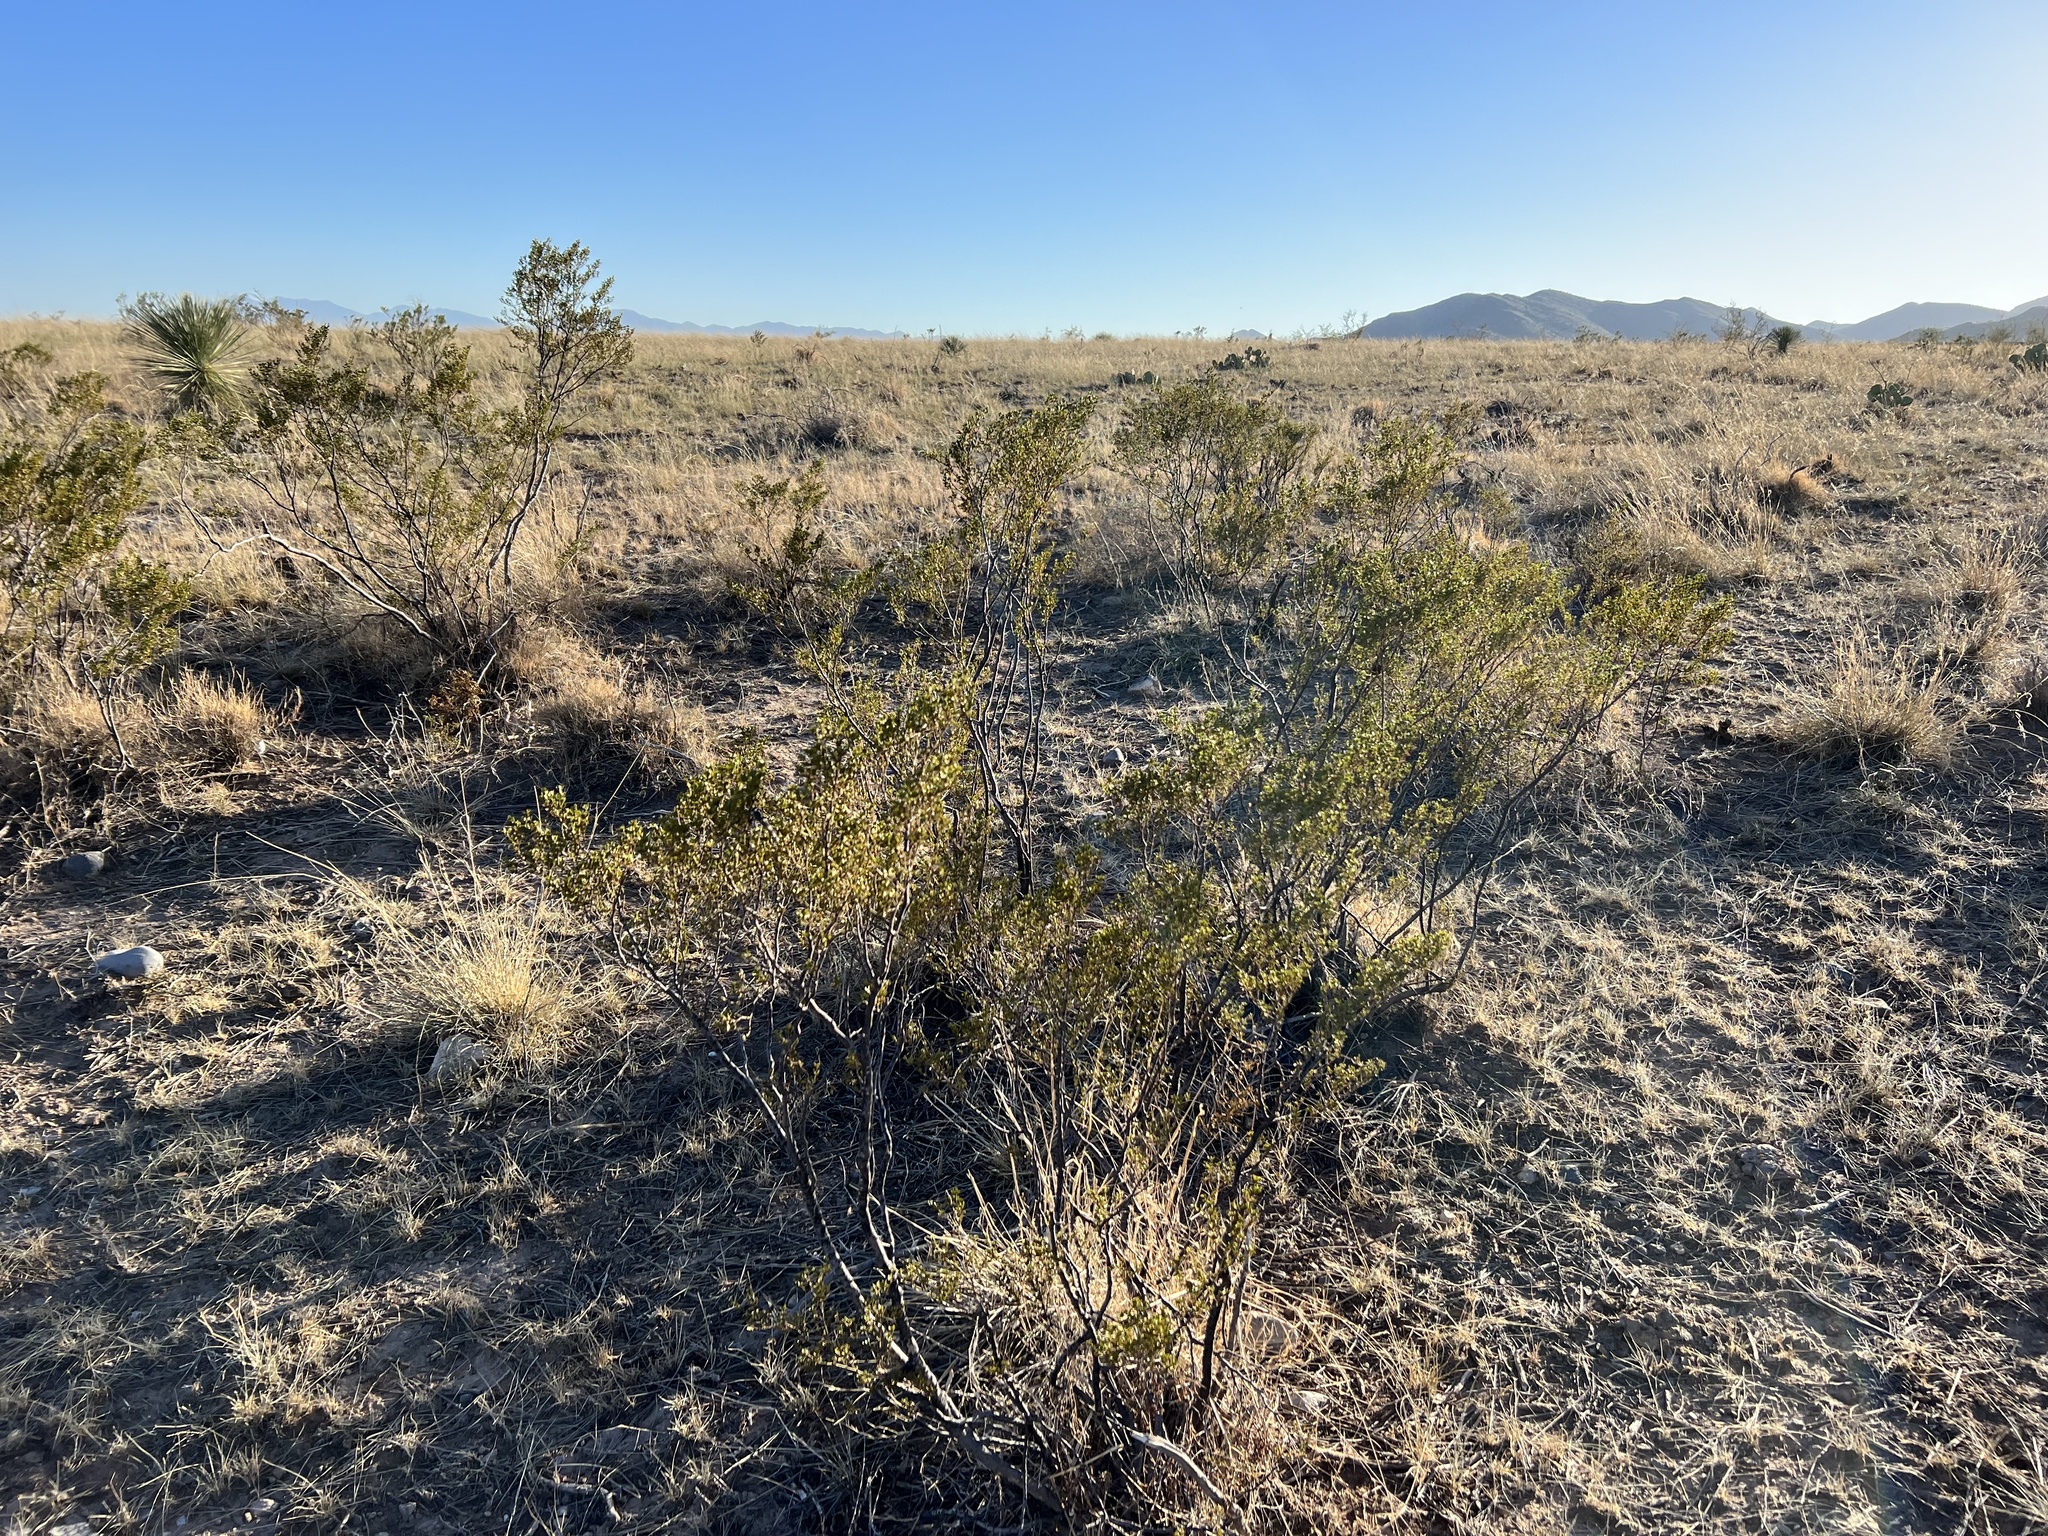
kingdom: Plantae
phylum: Tracheophyta
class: Magnoliopsida
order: Zygophyllales
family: Zygophyllaceae
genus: Larrea
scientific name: Larrea tridentata
